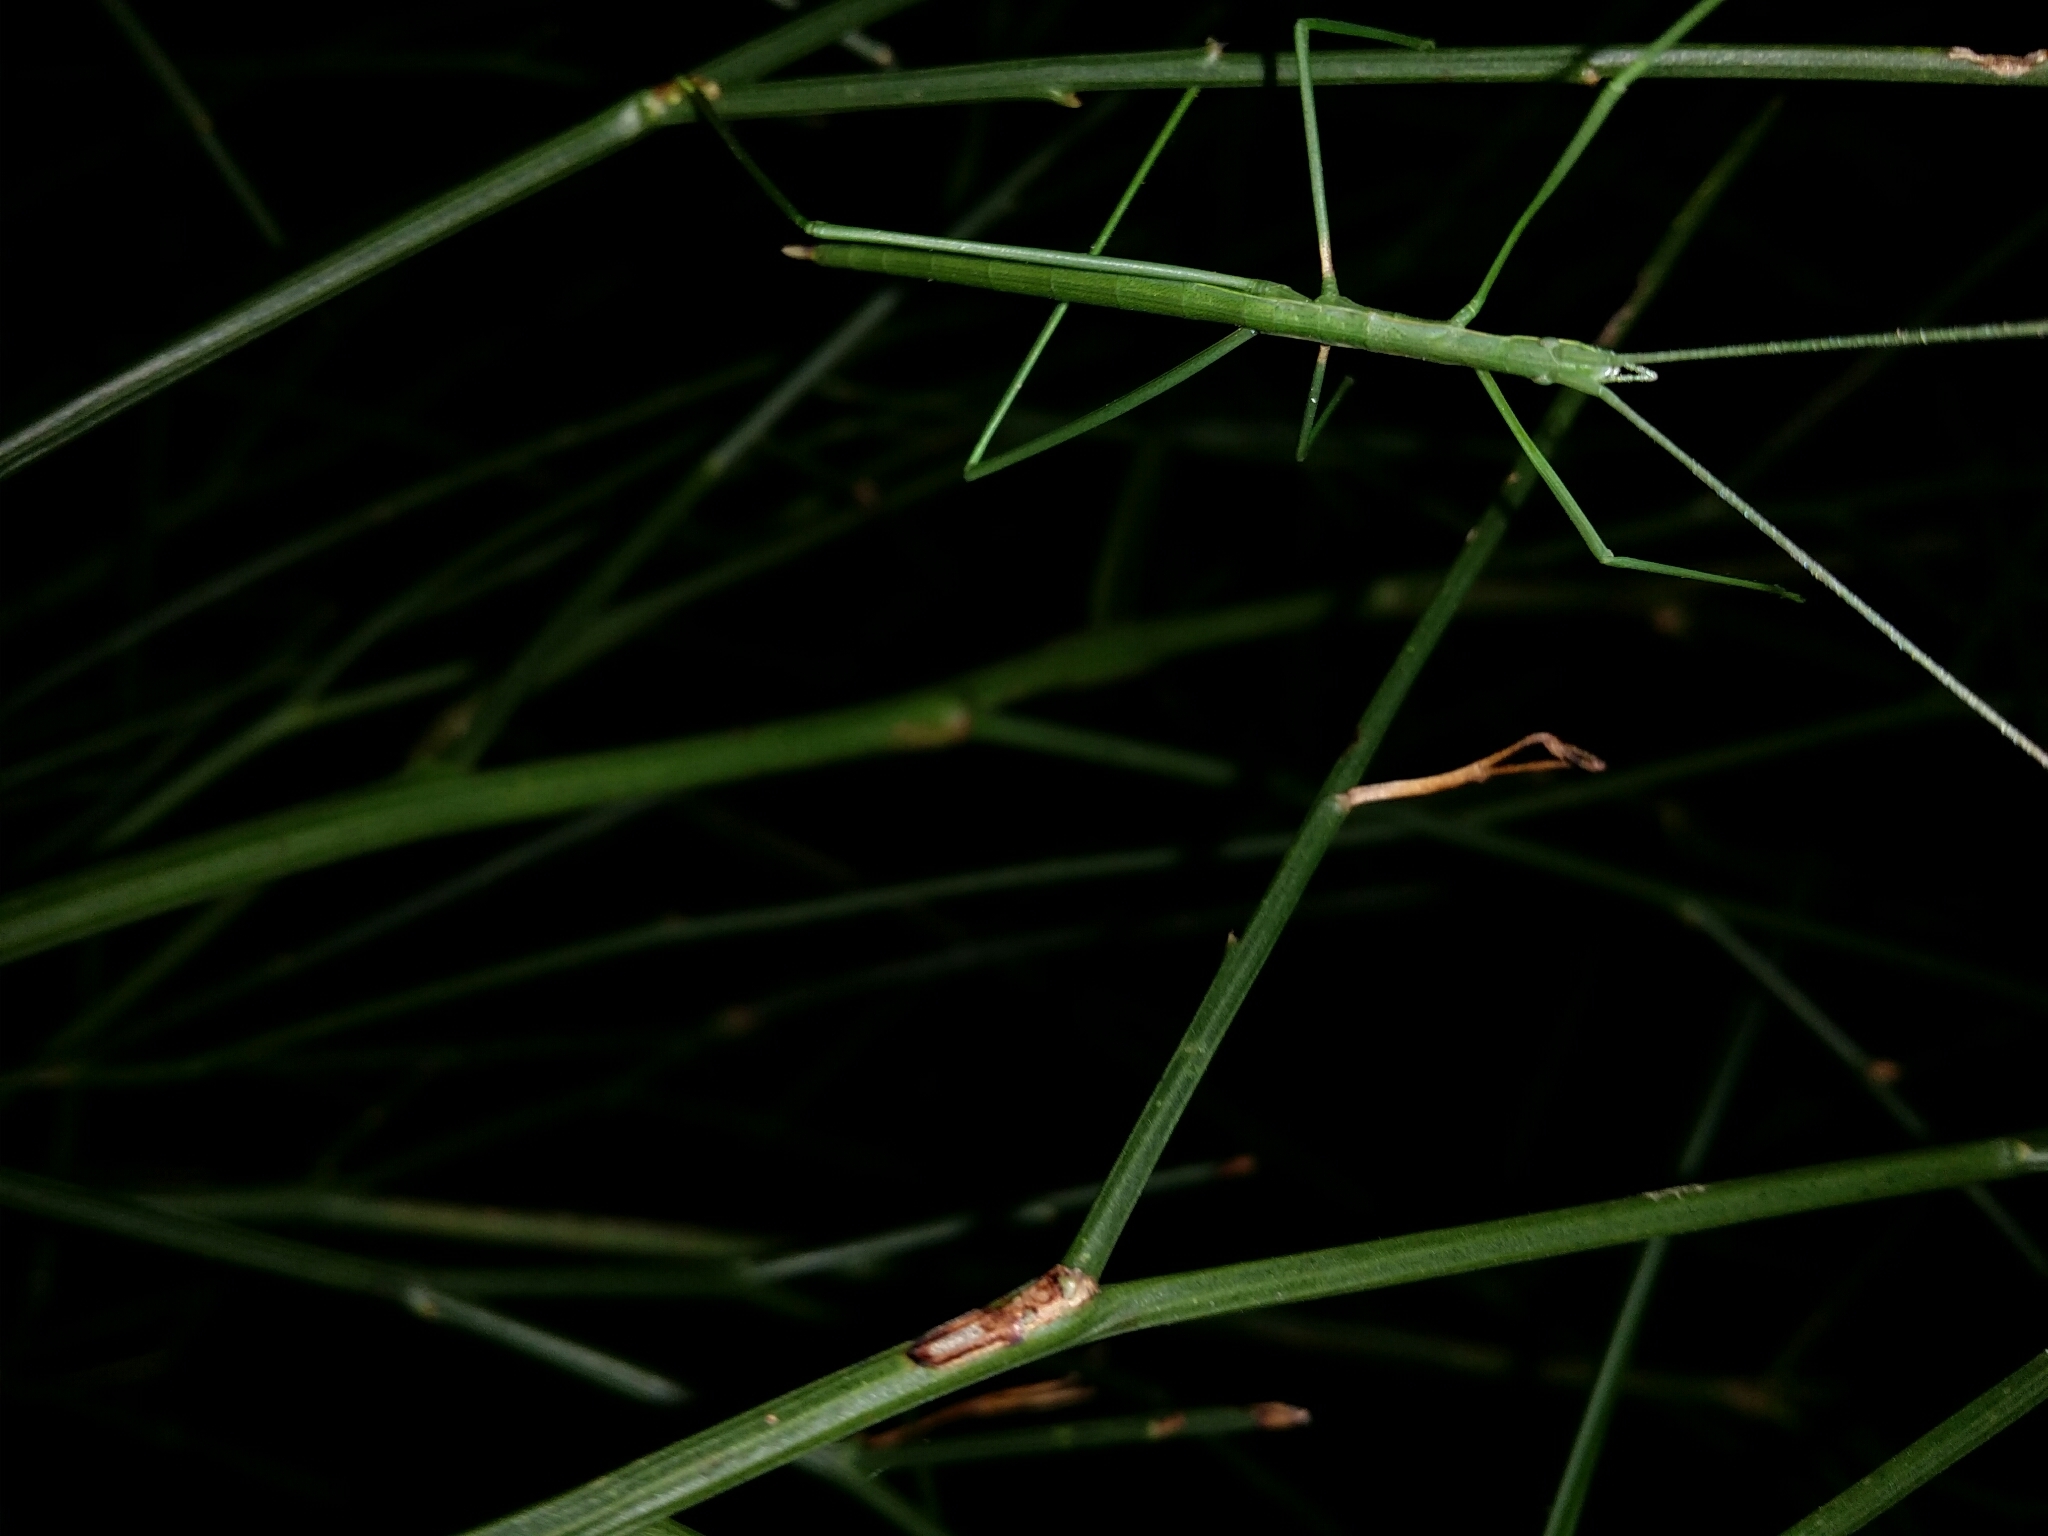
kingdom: Animalia
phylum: Arthropoda
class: Insecta
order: Orthoptera
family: Tettigoniidae
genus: Phasmodes
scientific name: Phasmodes ranatriformis
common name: King's park stick katydid
